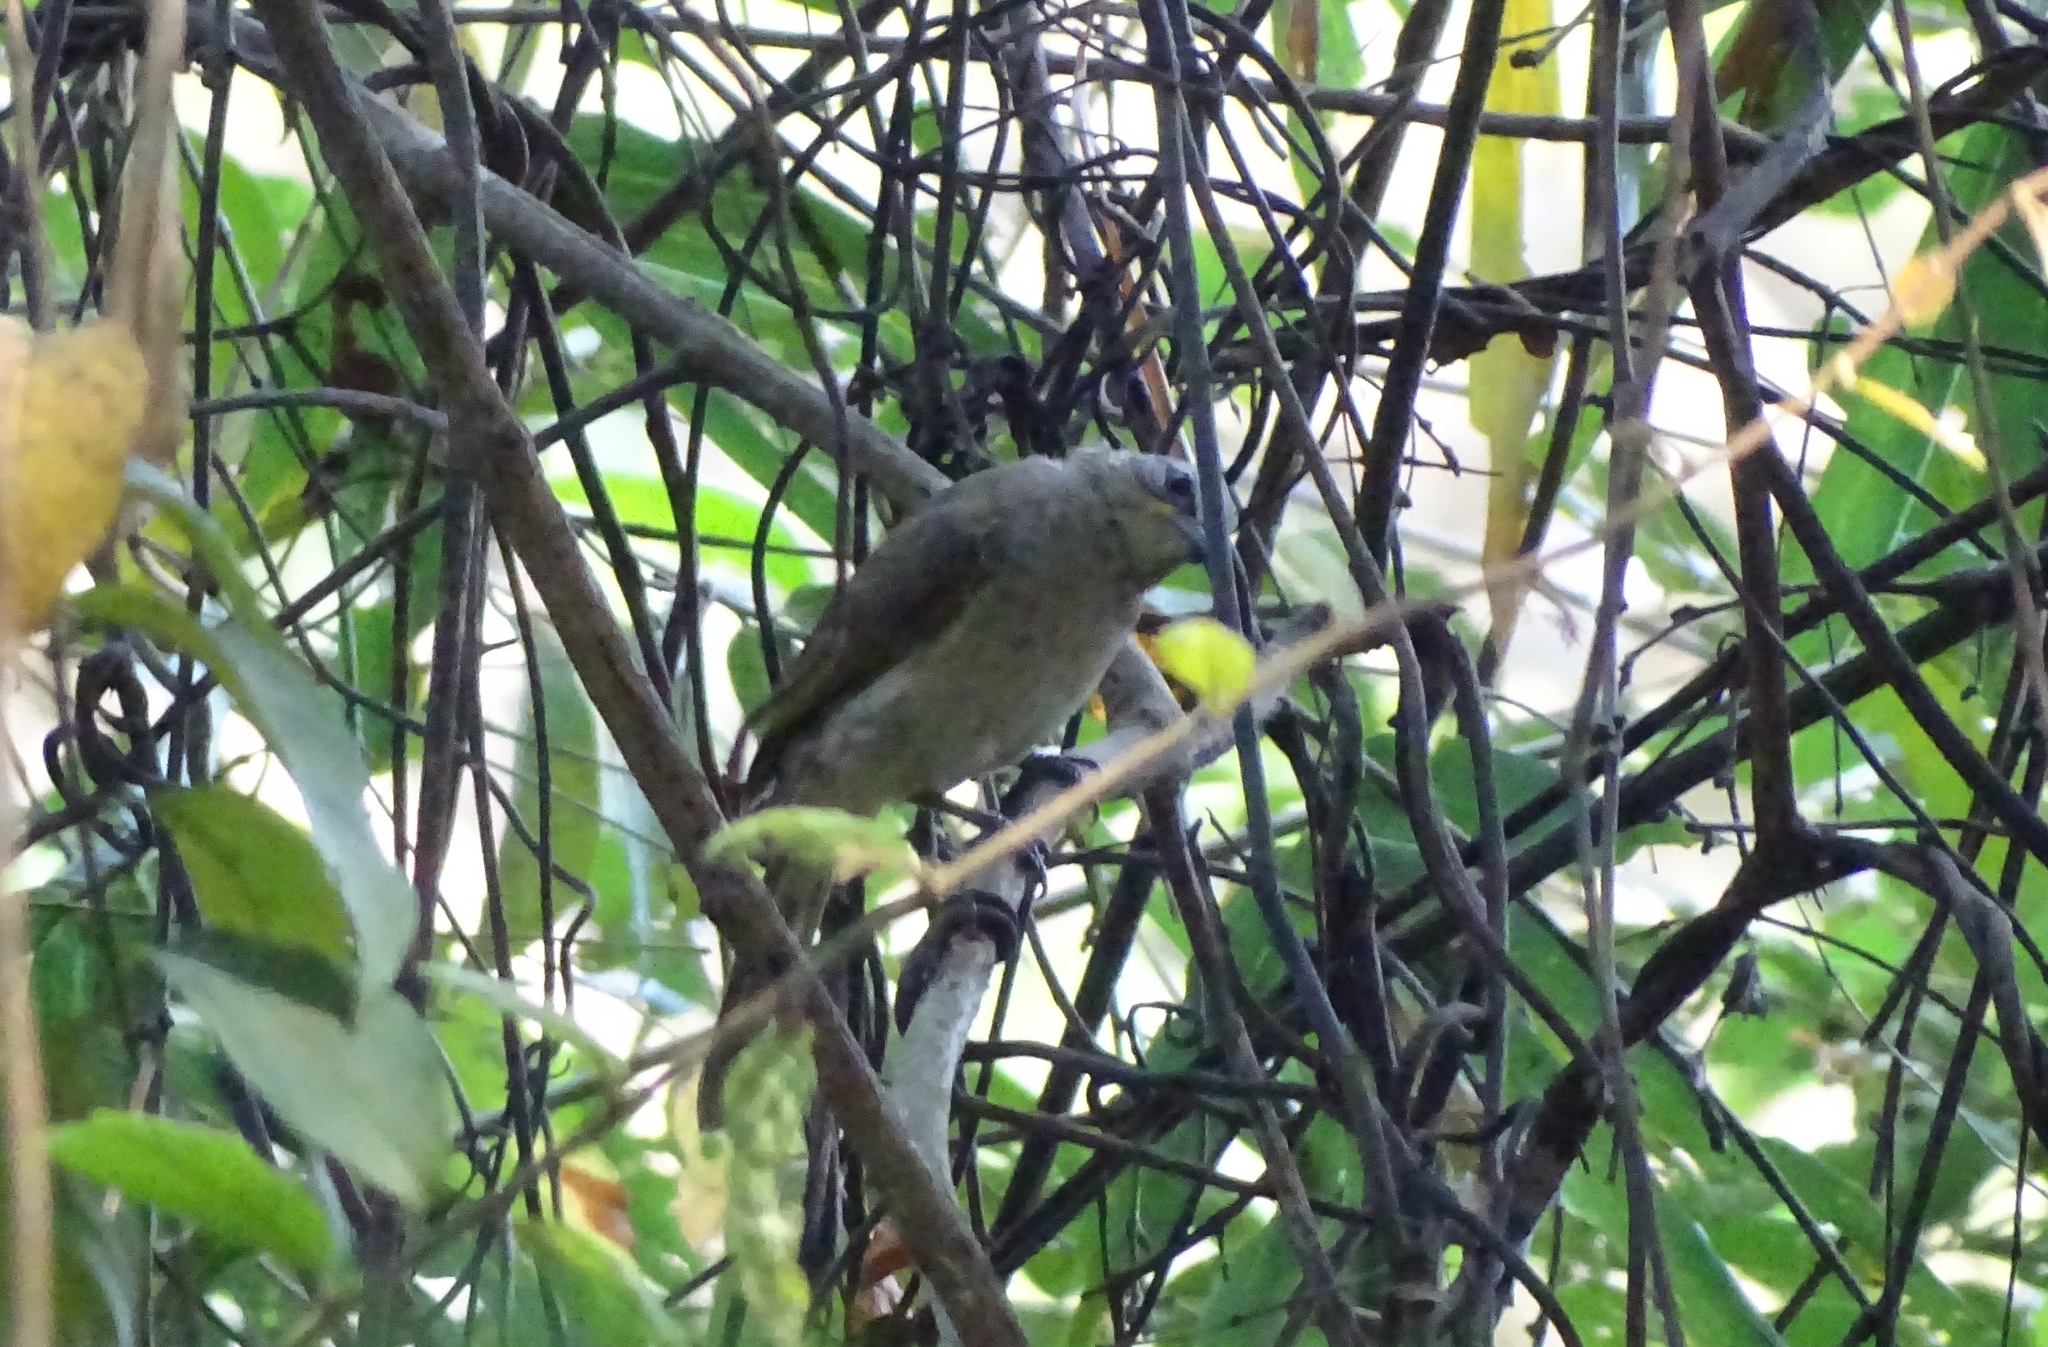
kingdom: Animalia
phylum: Chordata
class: Aves
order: Passeriformes
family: Pycnonotidae
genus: Pycnonotus
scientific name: Pycnonotus luteolus
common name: White-browed bulbul
